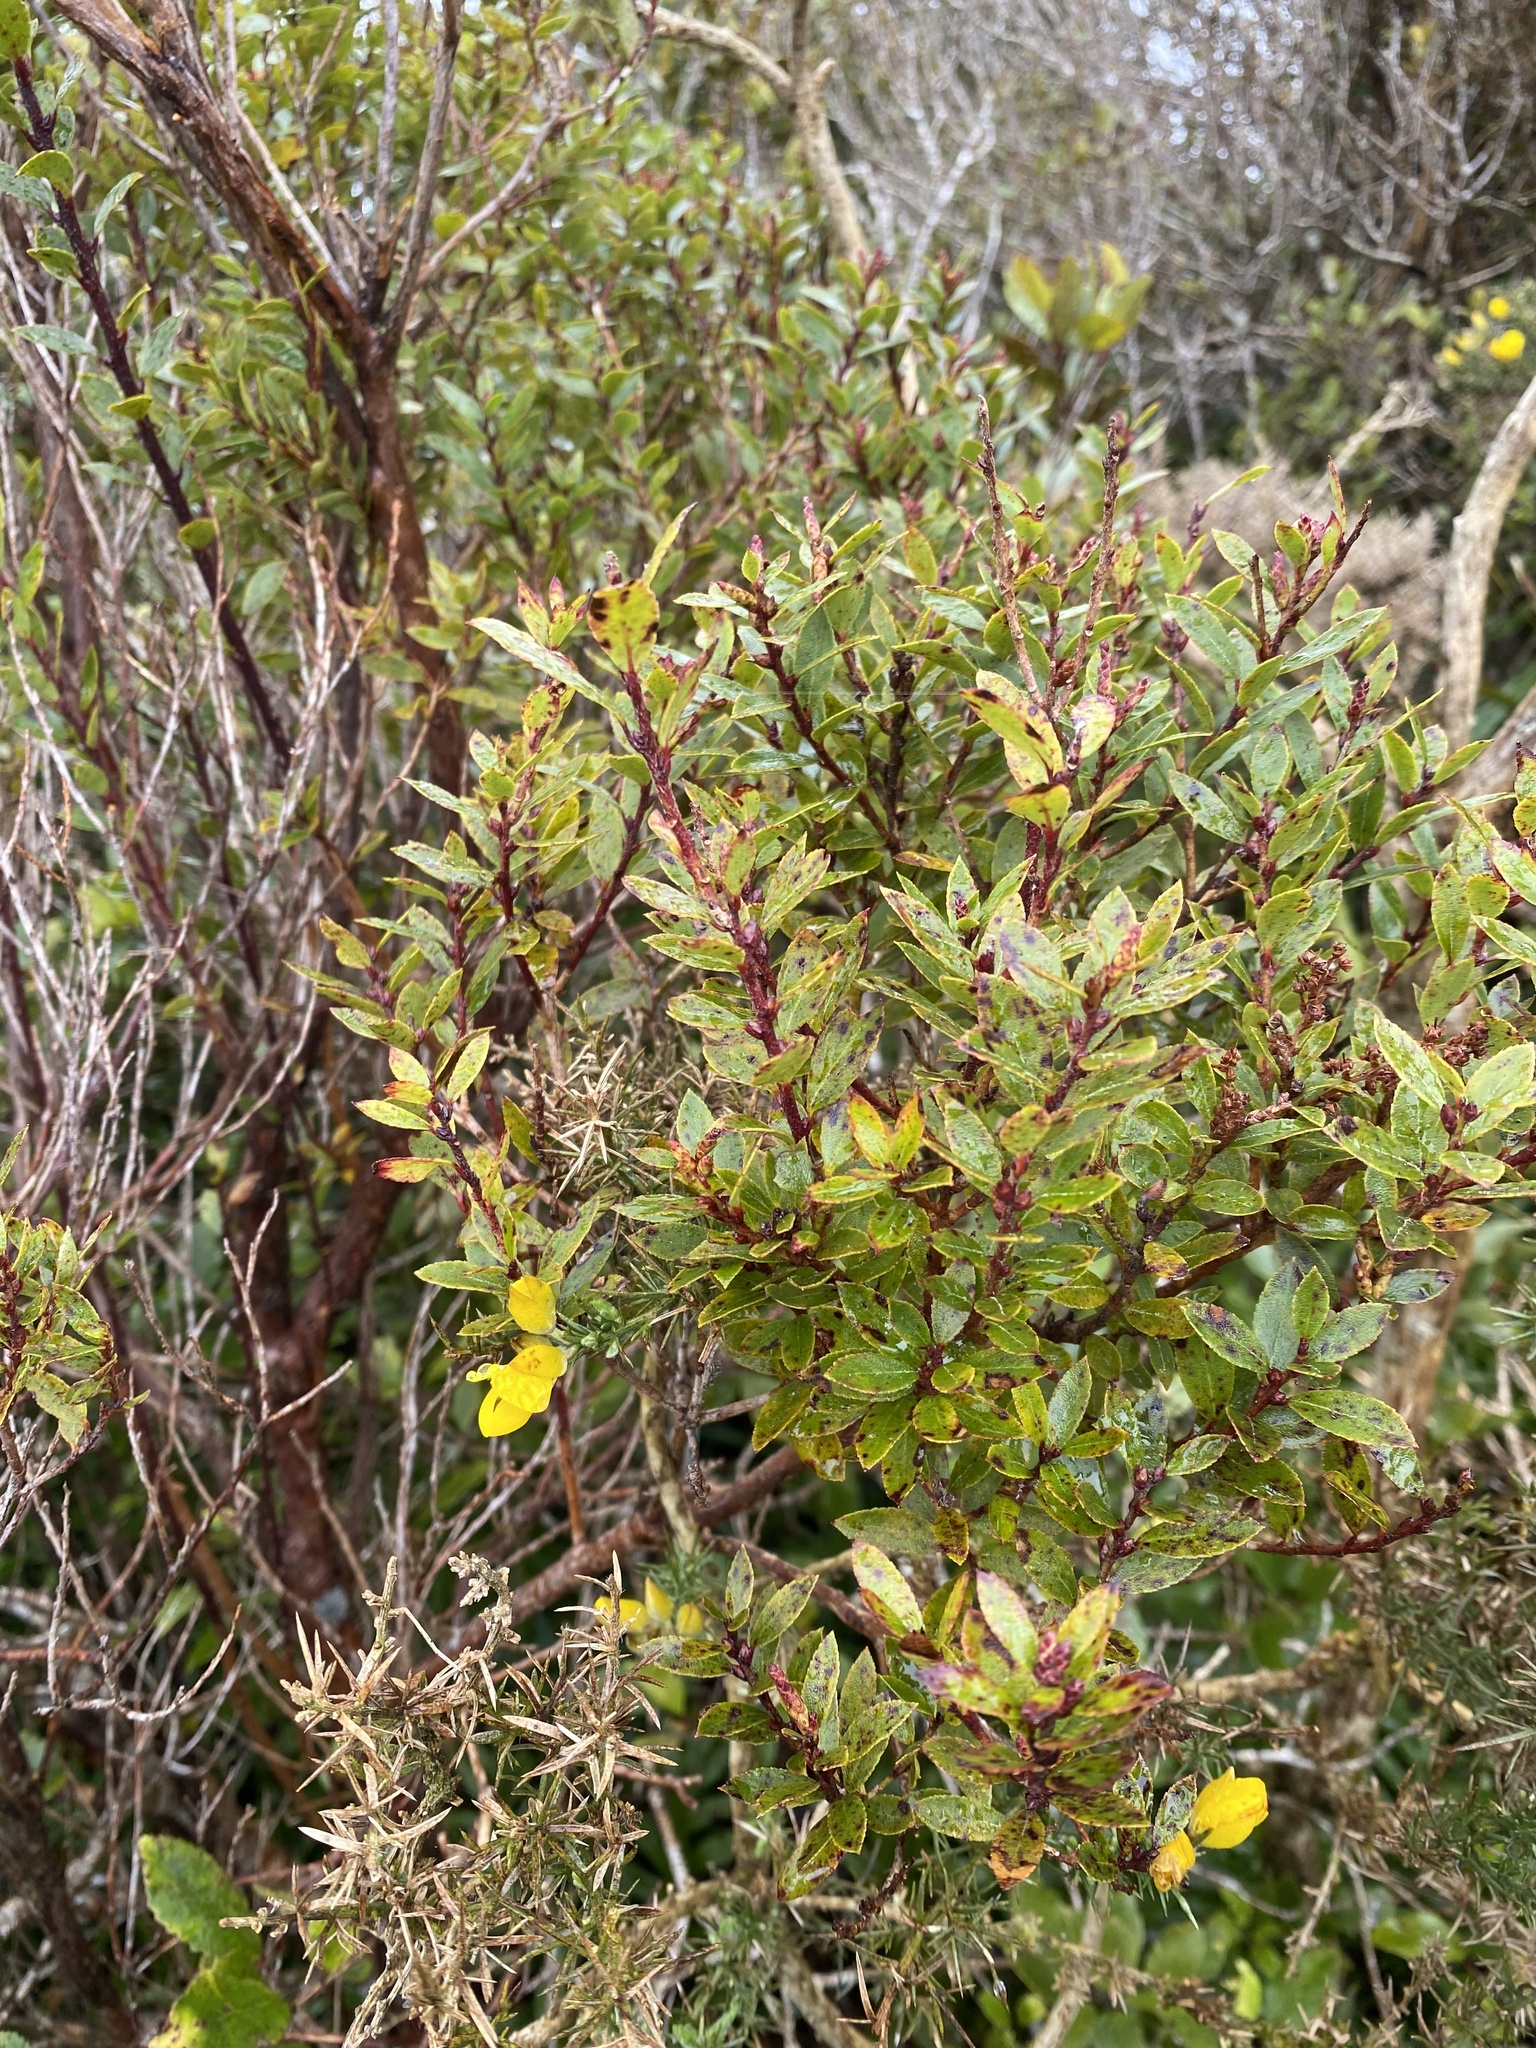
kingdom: Plantae
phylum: Tracheophyta
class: Magnoliopsida
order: Ericales
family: Ericaceae
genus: Gaultheria
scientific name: Gaultheria rupestris
